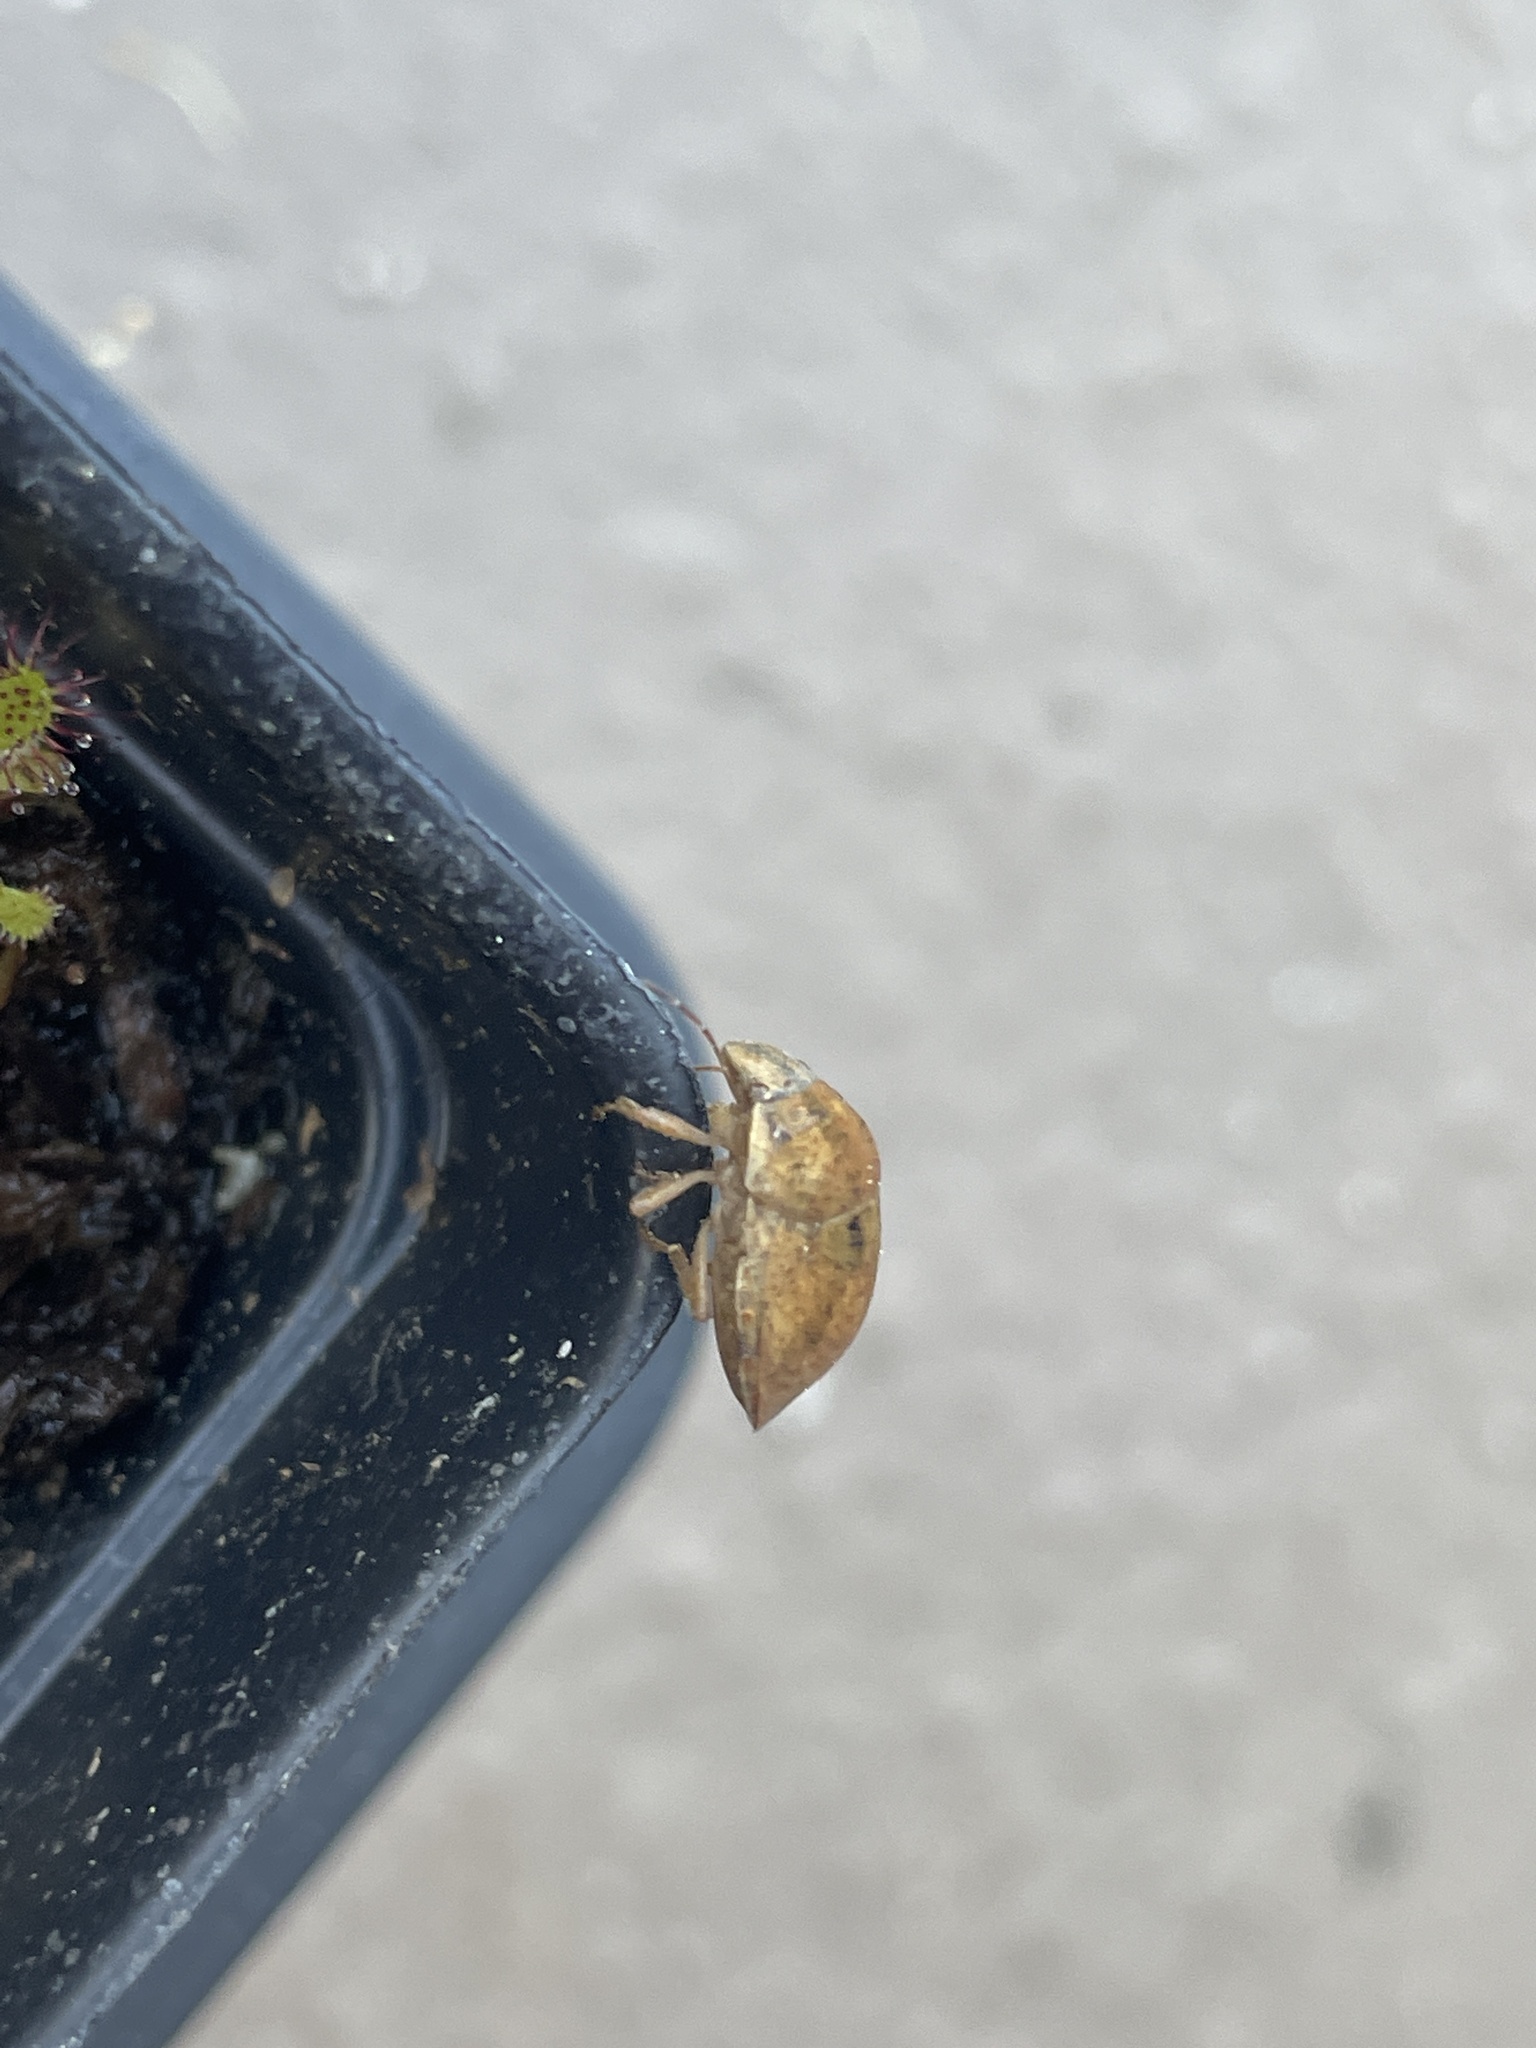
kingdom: Animalia
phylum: Arthropoda
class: Insecta
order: Hemiptera
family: Scutelleridae
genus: Sphyrocoris
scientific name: Sphyrocoris obliquus
